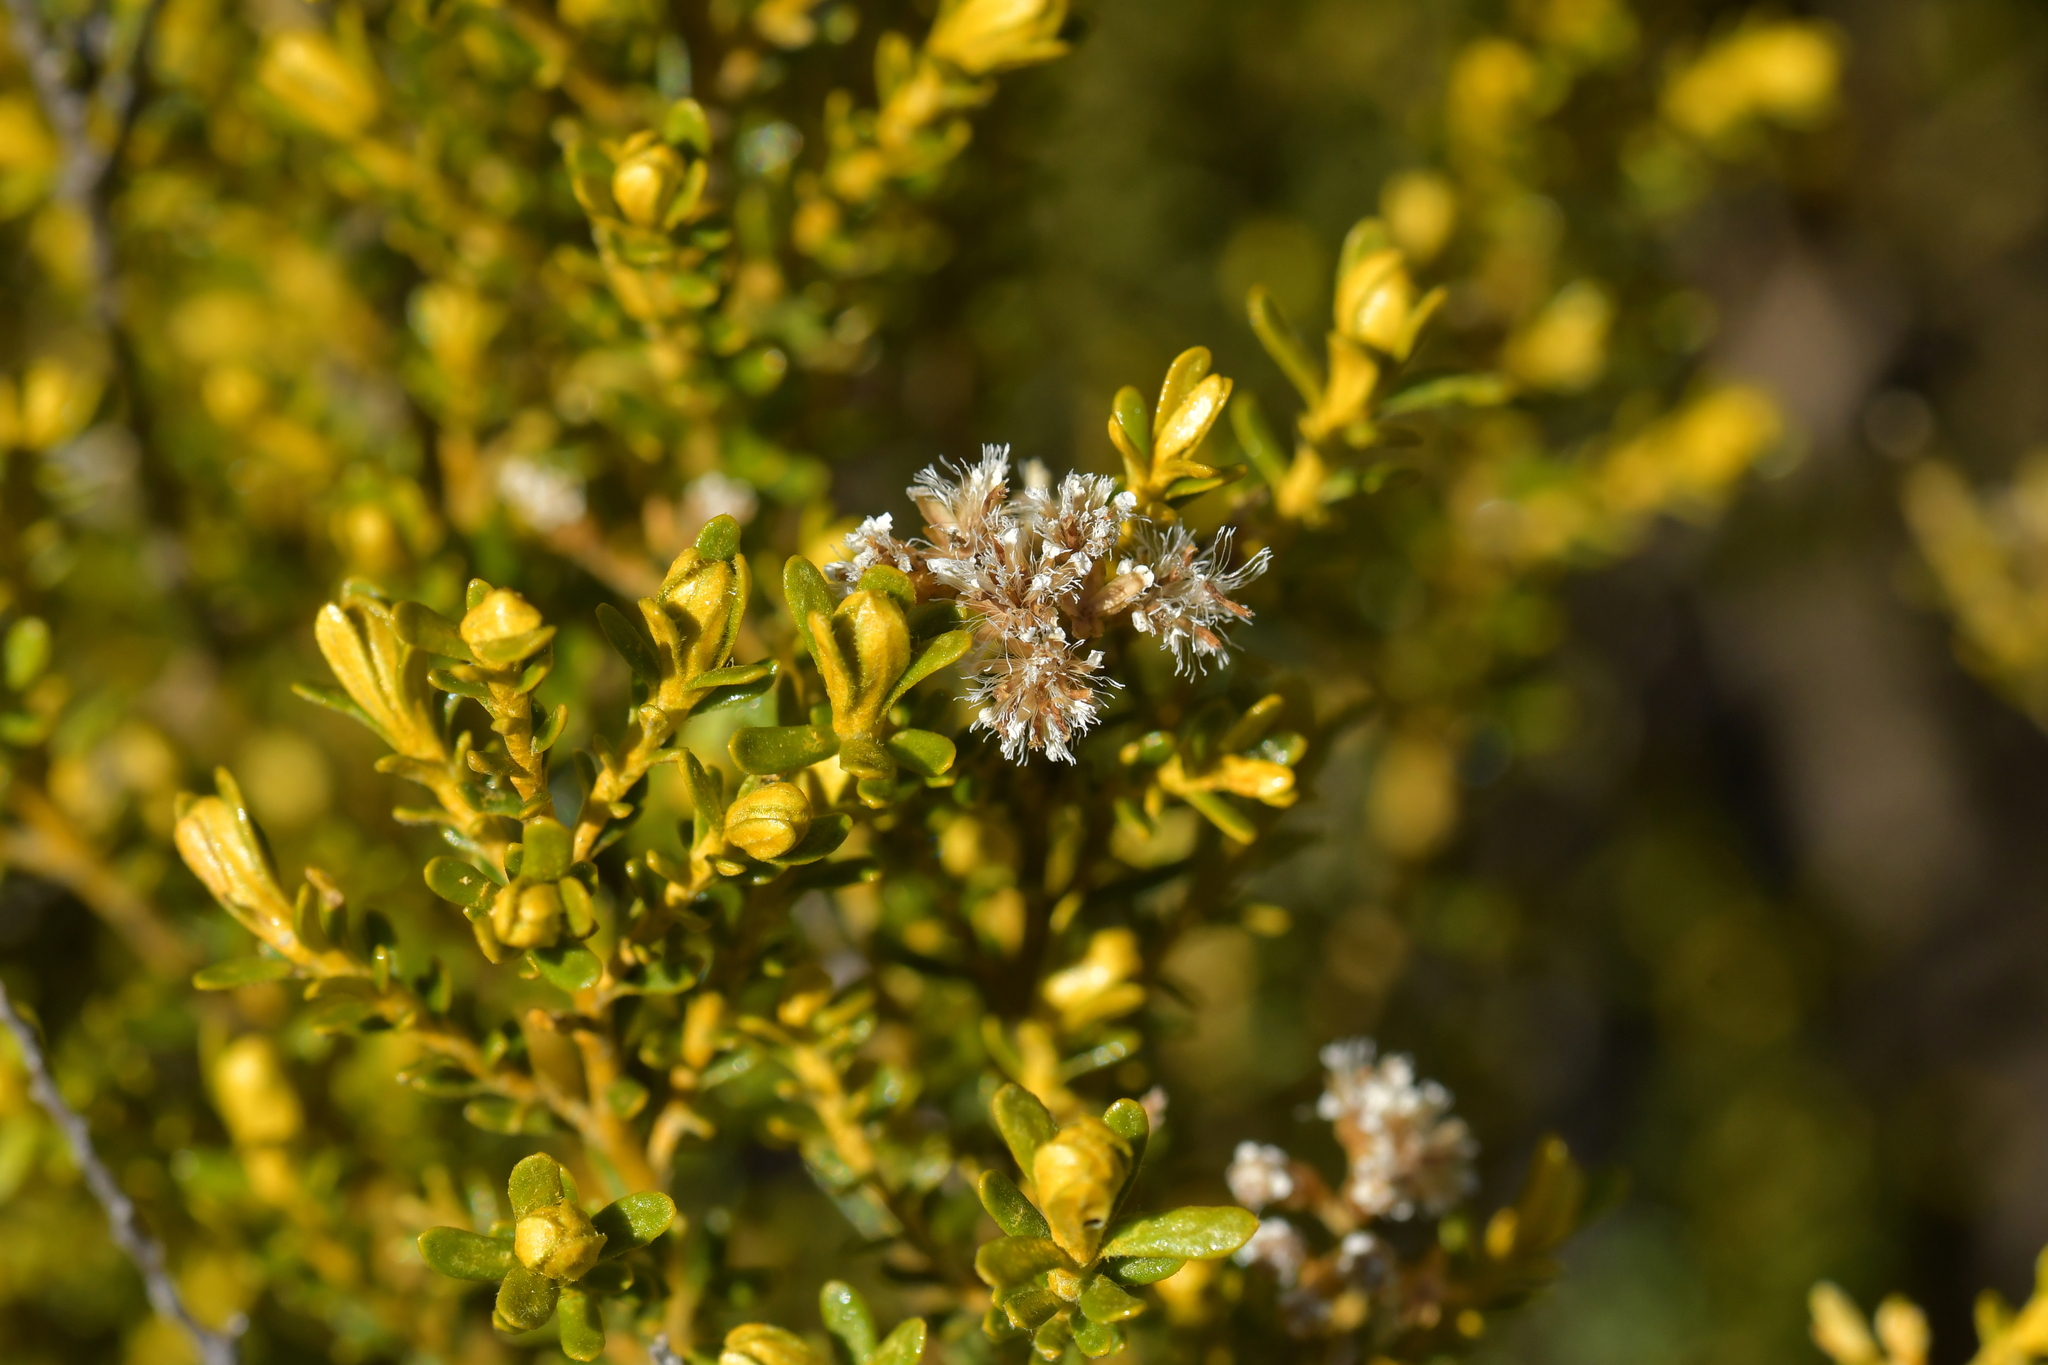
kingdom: Plantae
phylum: Tracheophyta
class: Magnoliopsida
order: Asterales
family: Asteraceae
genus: Ozothamnus
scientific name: Ozothamnus leptophyllus
